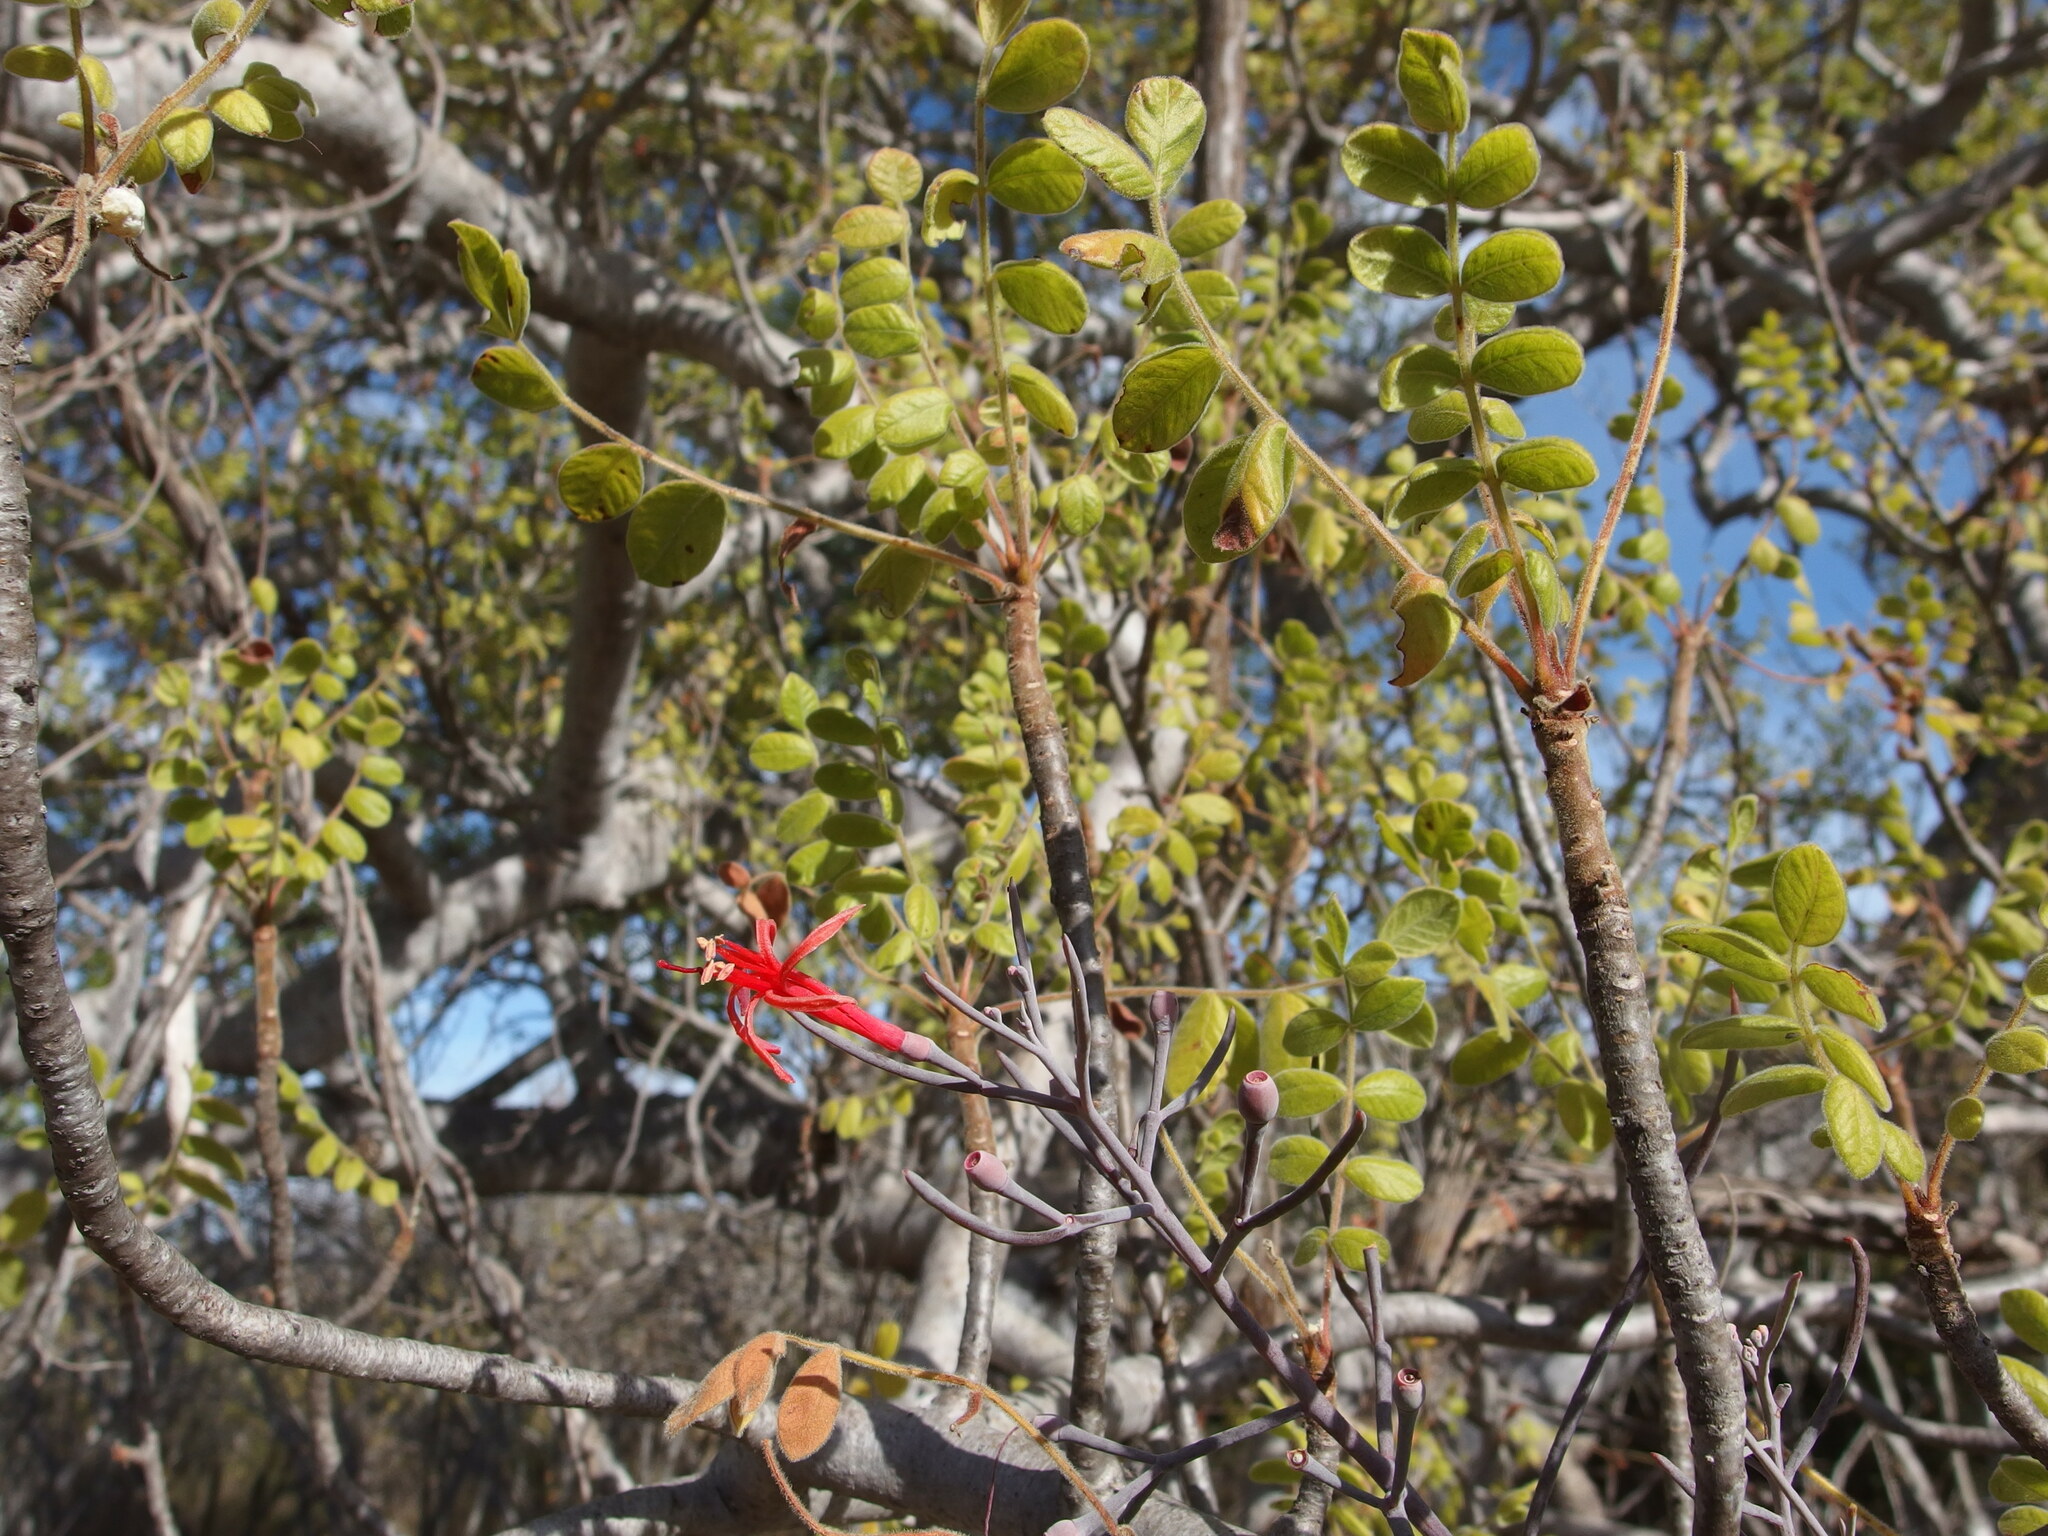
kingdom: Plantae
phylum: Tracheophyta
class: Magnoliopsida
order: Santalales
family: Loranthaceae
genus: Psittacanthus
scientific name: Psittacanthus sonorae
